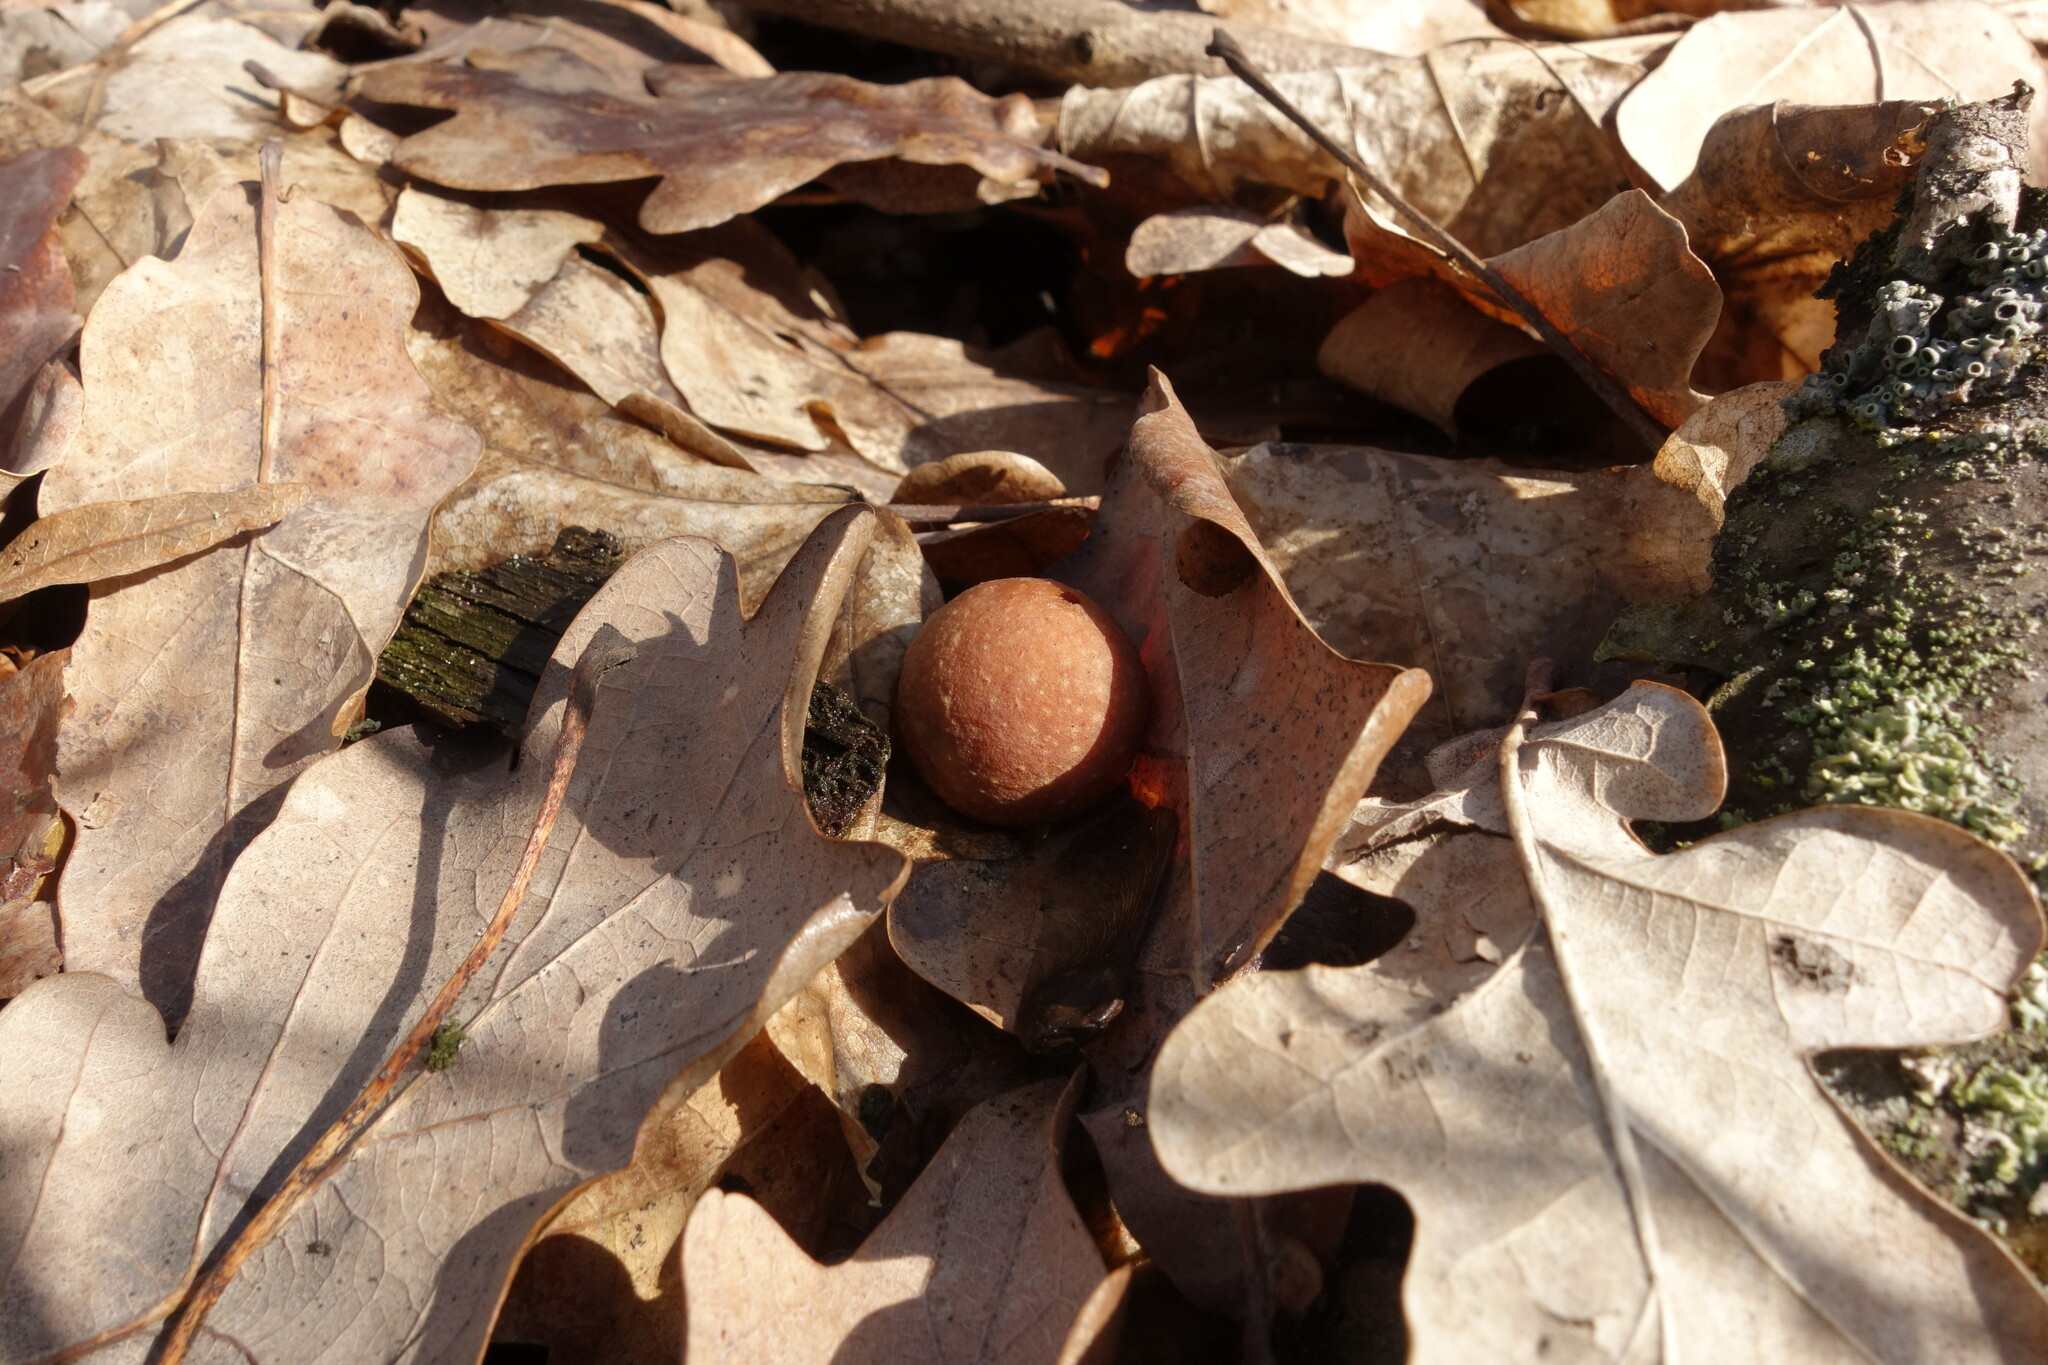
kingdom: Animalia
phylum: Arthropoda
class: Insecta
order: Hymenoptera
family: Cynipidae
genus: Cynips
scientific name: Cynips quercusfolii
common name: Cherry gall
